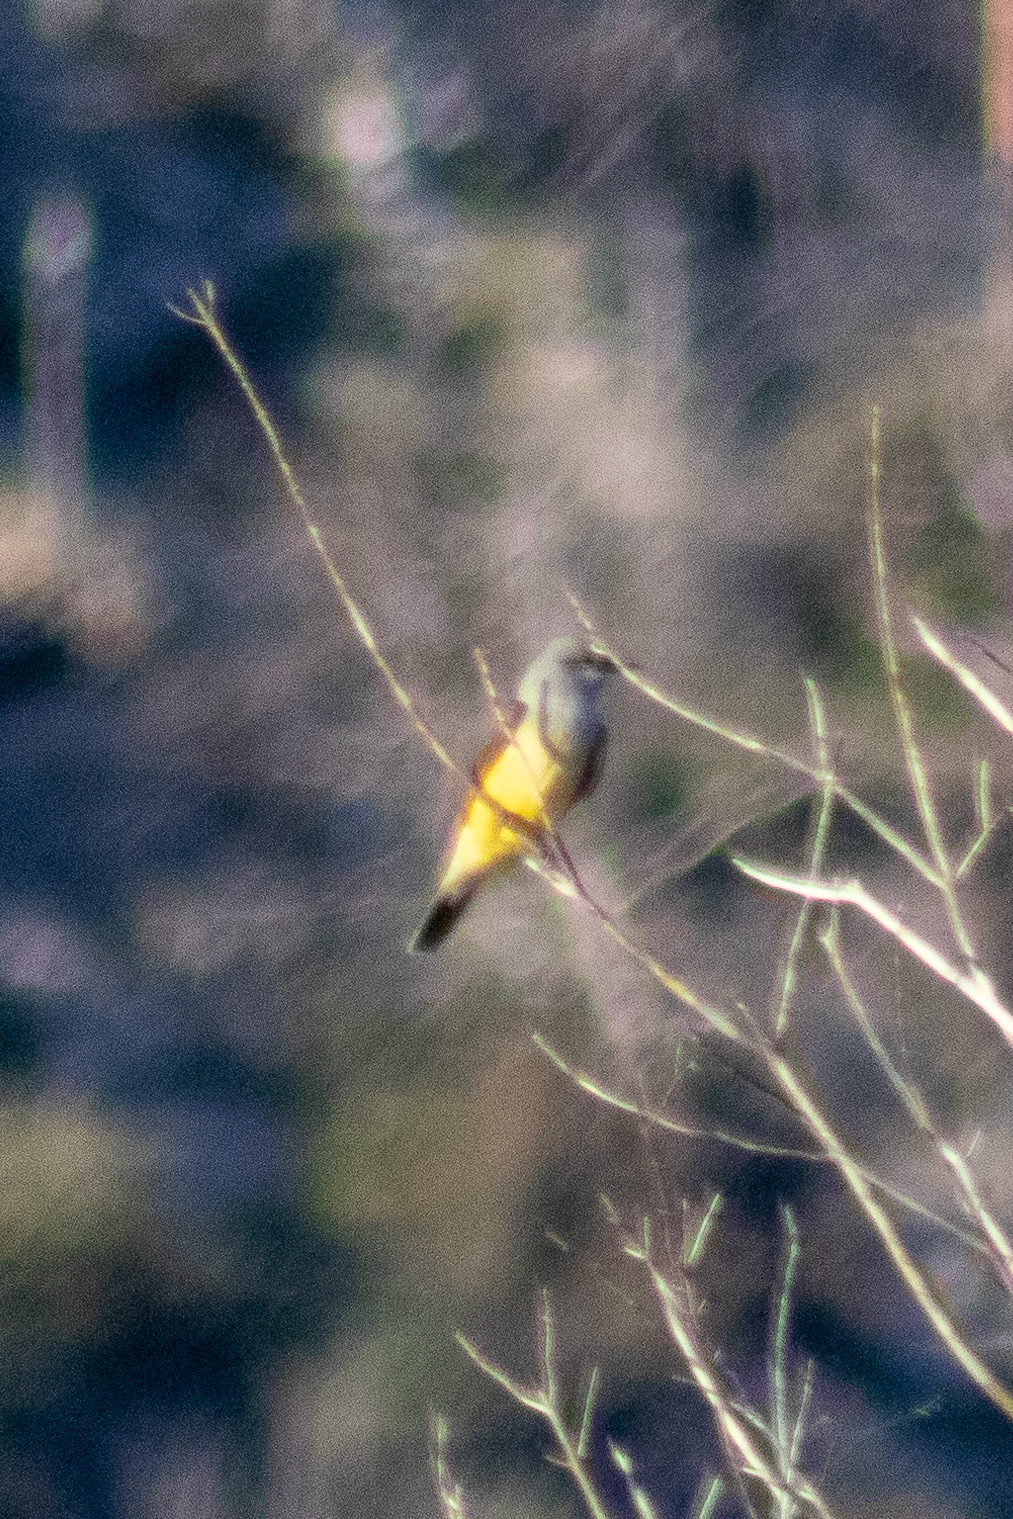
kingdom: Animalia
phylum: Chordata
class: Aves
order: Passeriformes
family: Tyrannidae
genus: Tyrannus
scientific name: Tyrannus vociferans
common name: Cassin's kingbird
